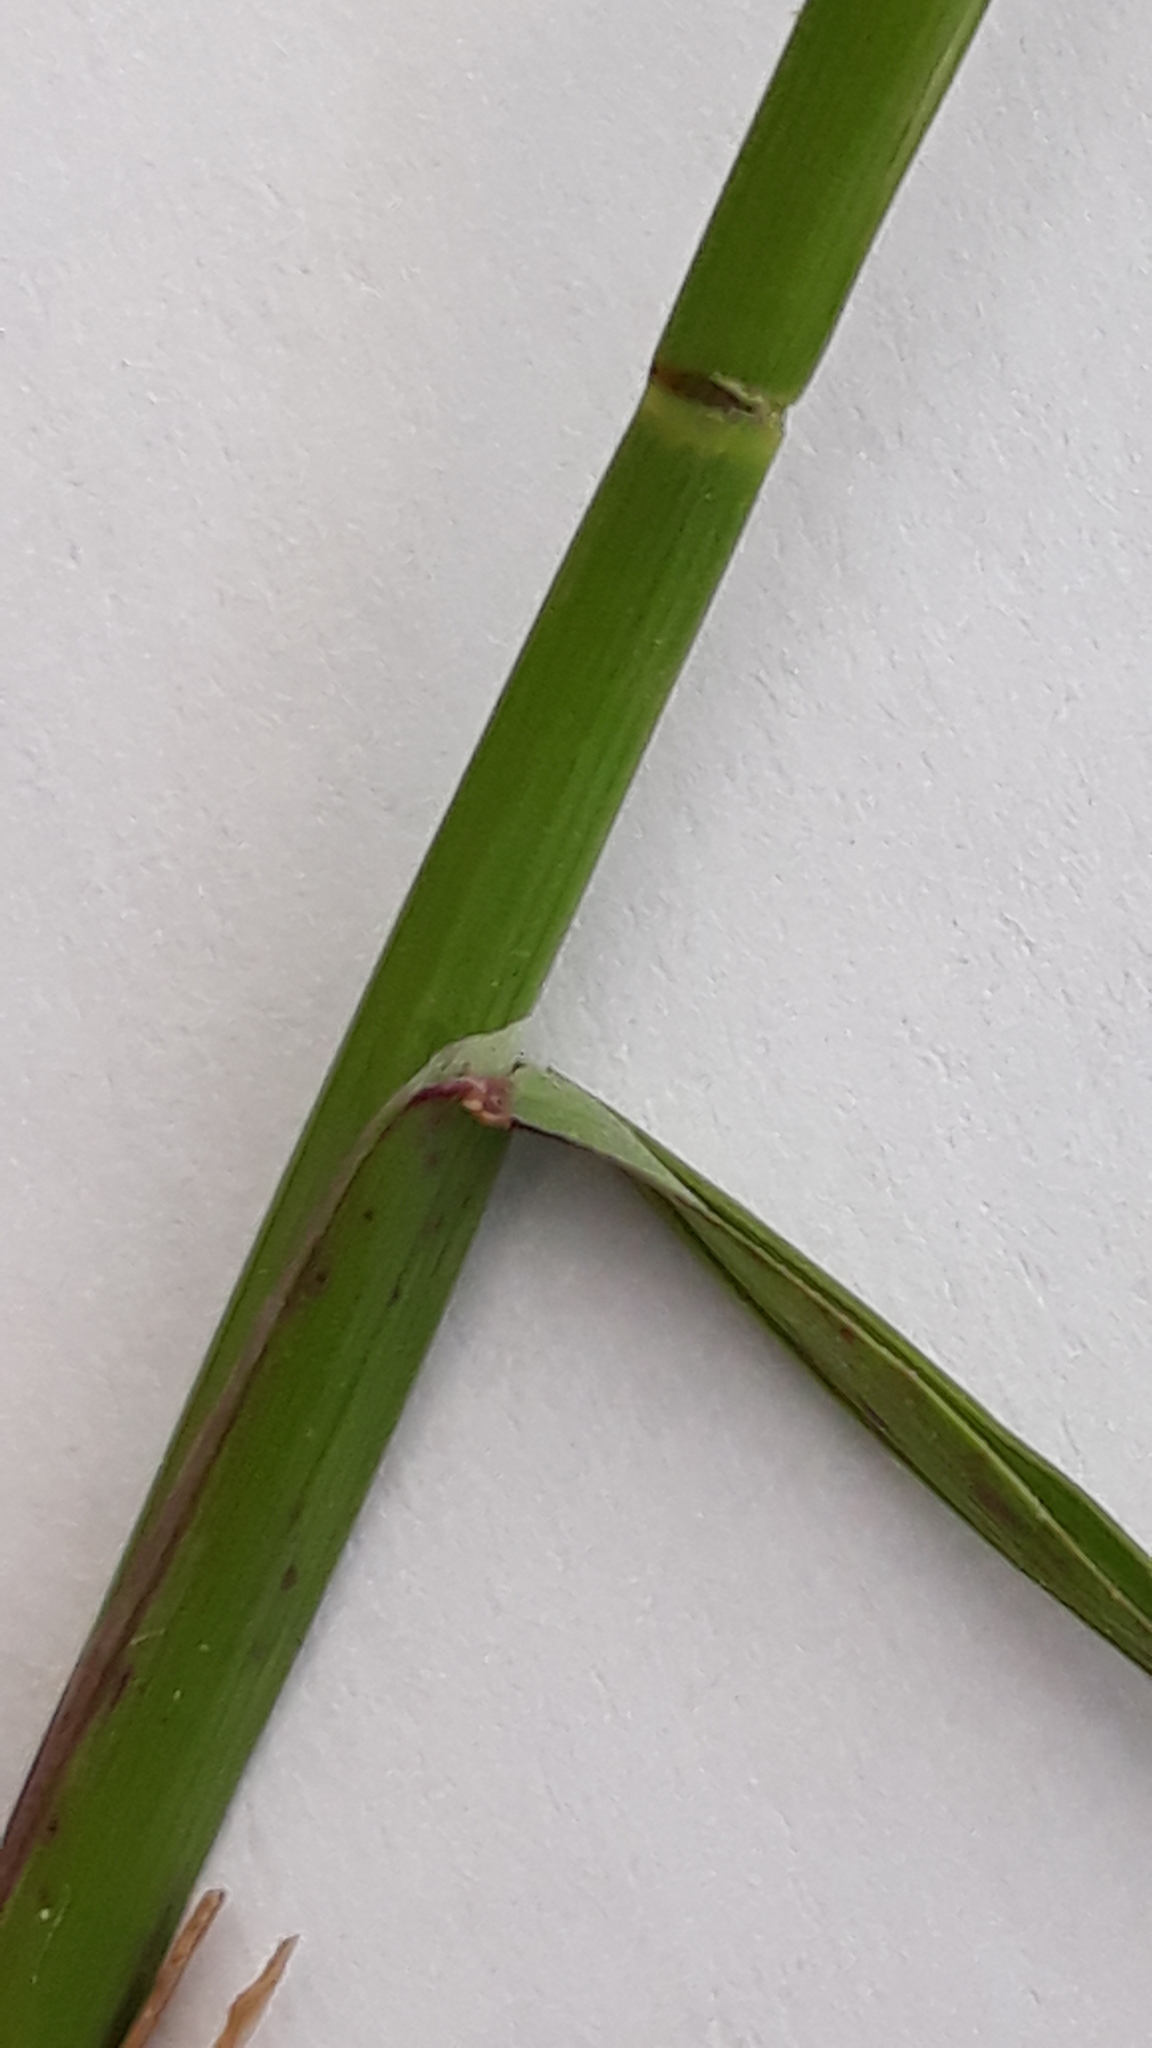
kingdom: Plantae
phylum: Tracheophyta
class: Liliopsida
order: Poales
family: Poaceae
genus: Poa
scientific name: Poa compressa
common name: Canada bluegrass
